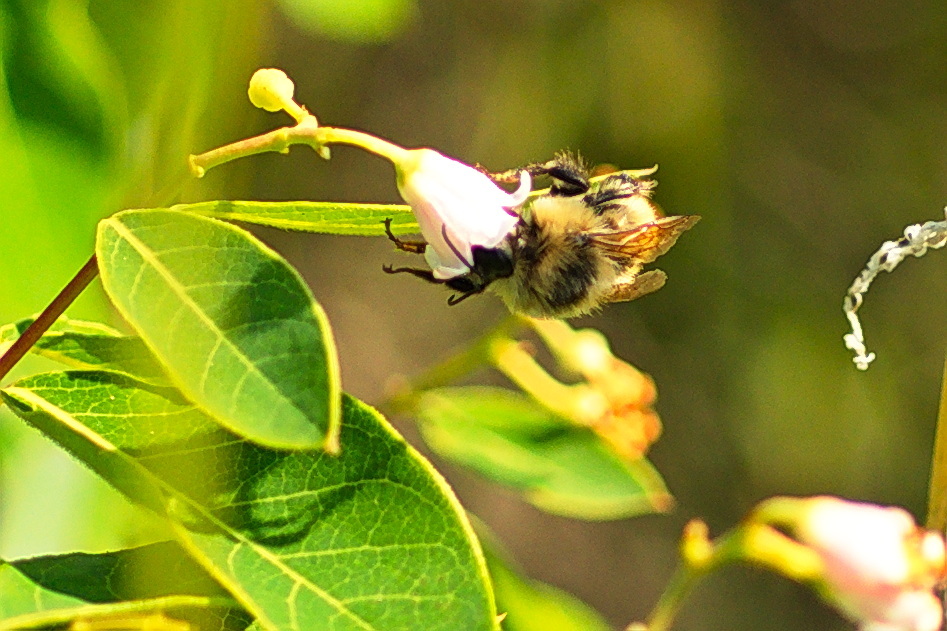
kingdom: Animalia
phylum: Arthropoda
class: Insecta
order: Hymenoptera
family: Apidae
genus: Bombus
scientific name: Bombus rufocinctus
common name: Red-belted bumble bee
